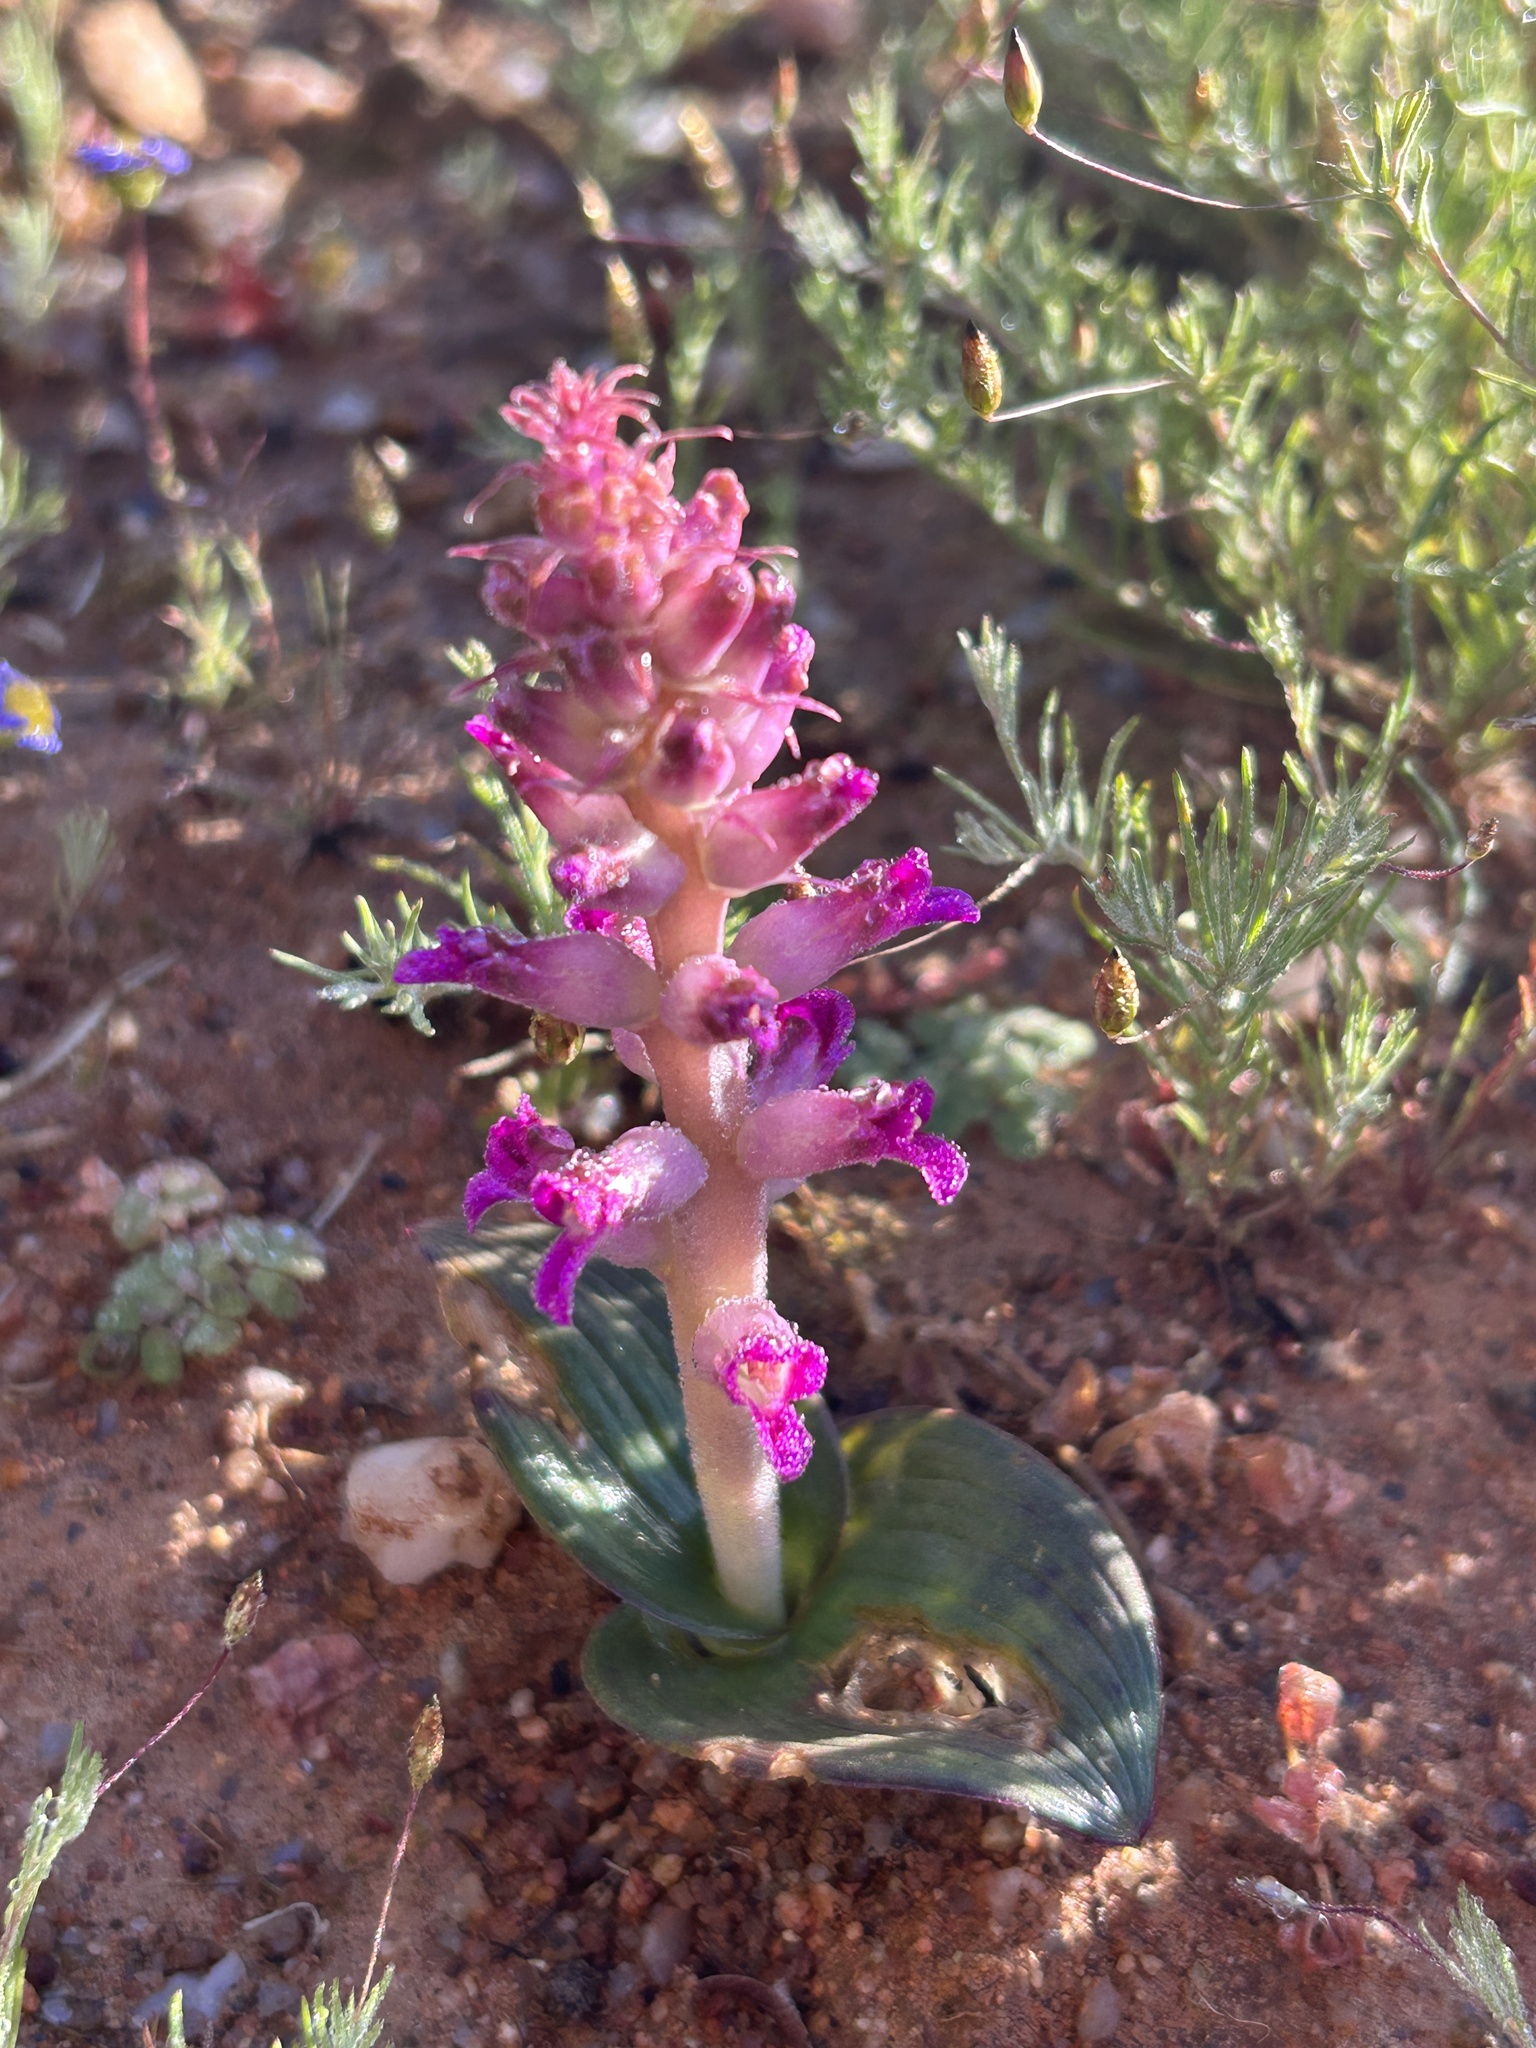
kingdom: Plantae
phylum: Tracheophyta
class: Liliopsida
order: Asparagales
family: Asparagaceae
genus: Lachenalia
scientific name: Lachenalia carnosa
